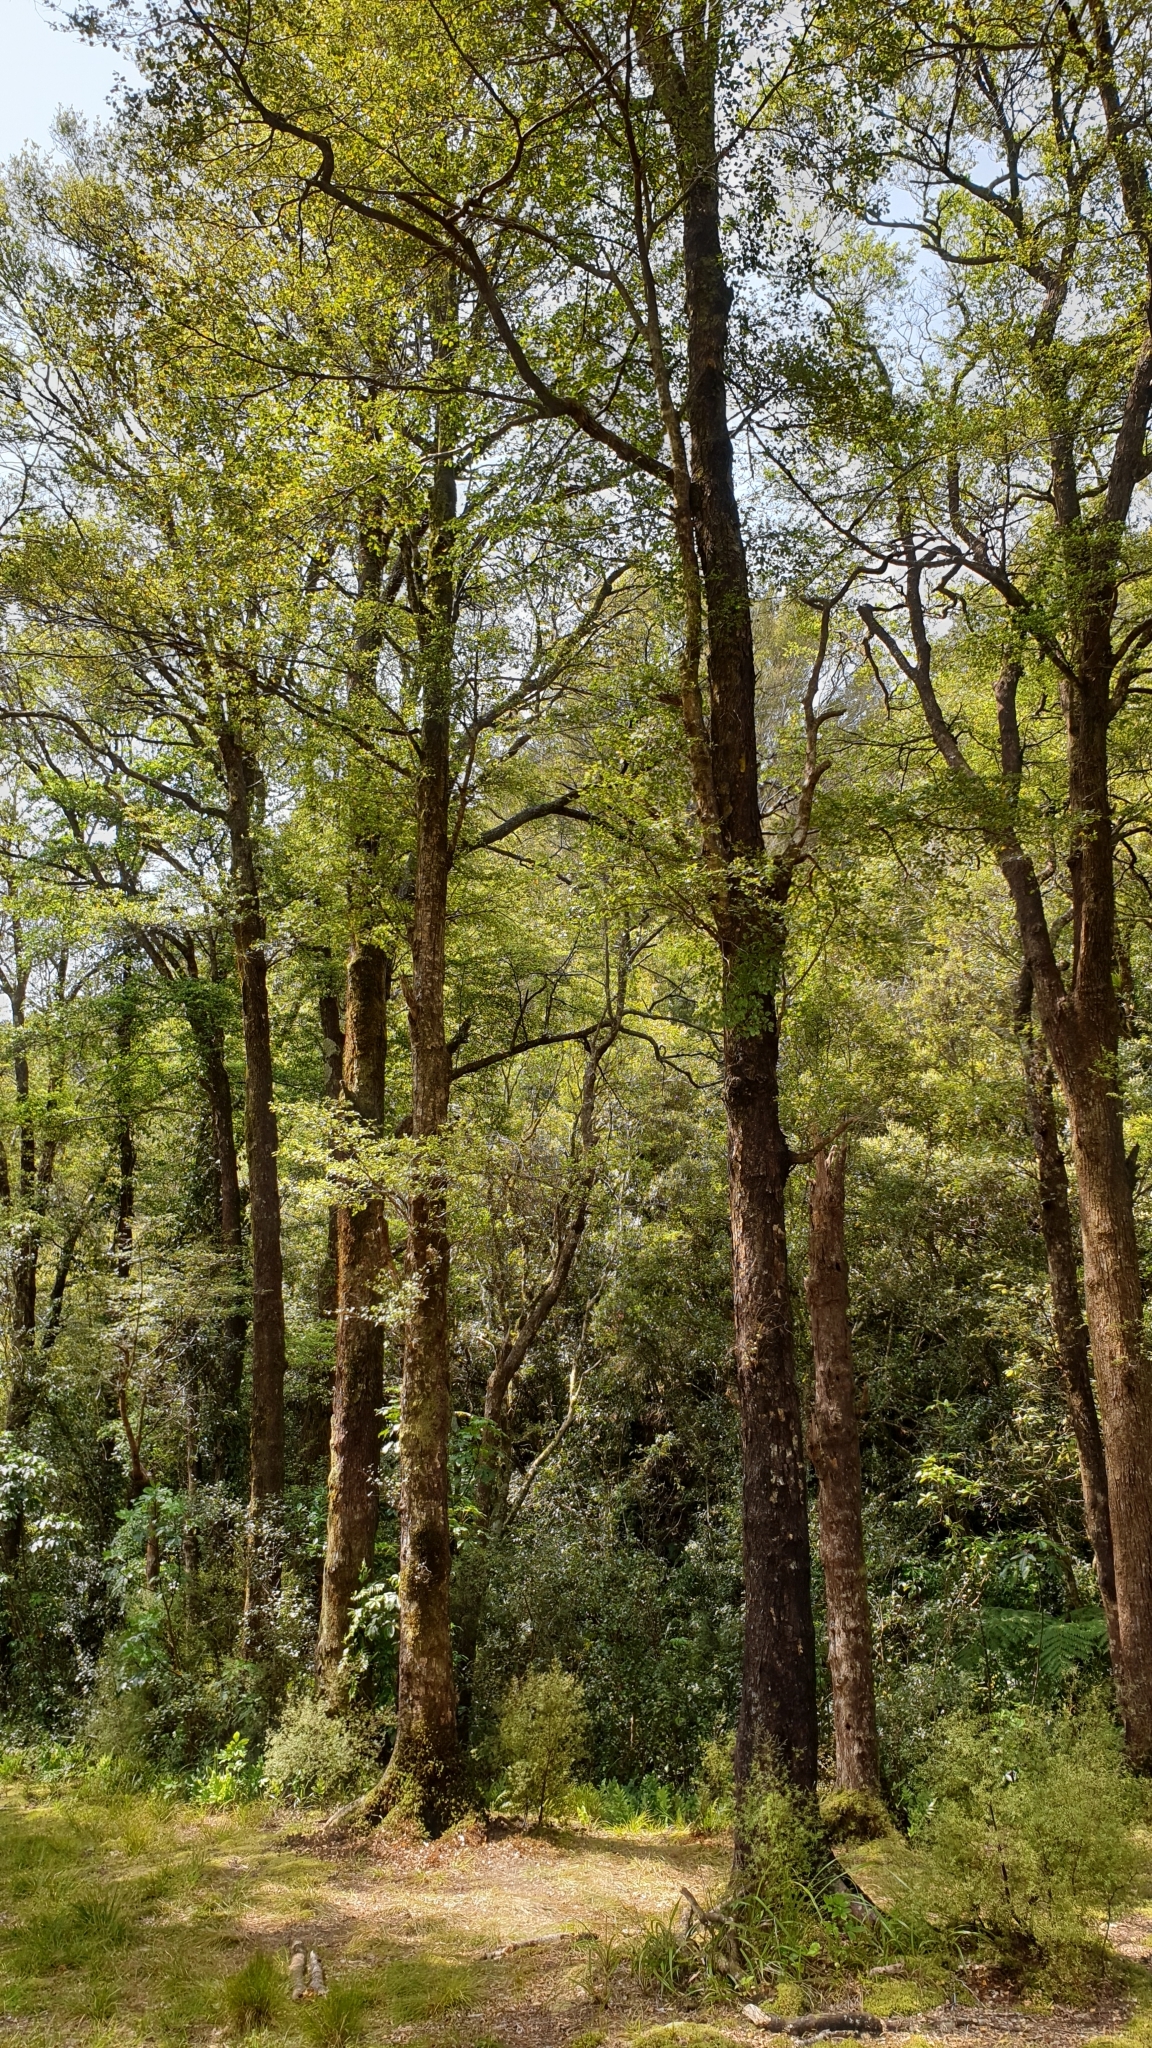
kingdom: Plantae
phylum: Tracheophyta
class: Magnoliopsida
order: Fagales
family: Nothofagaceae
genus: Nothofagus
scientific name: Nothofagus truncata
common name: Hard beech
